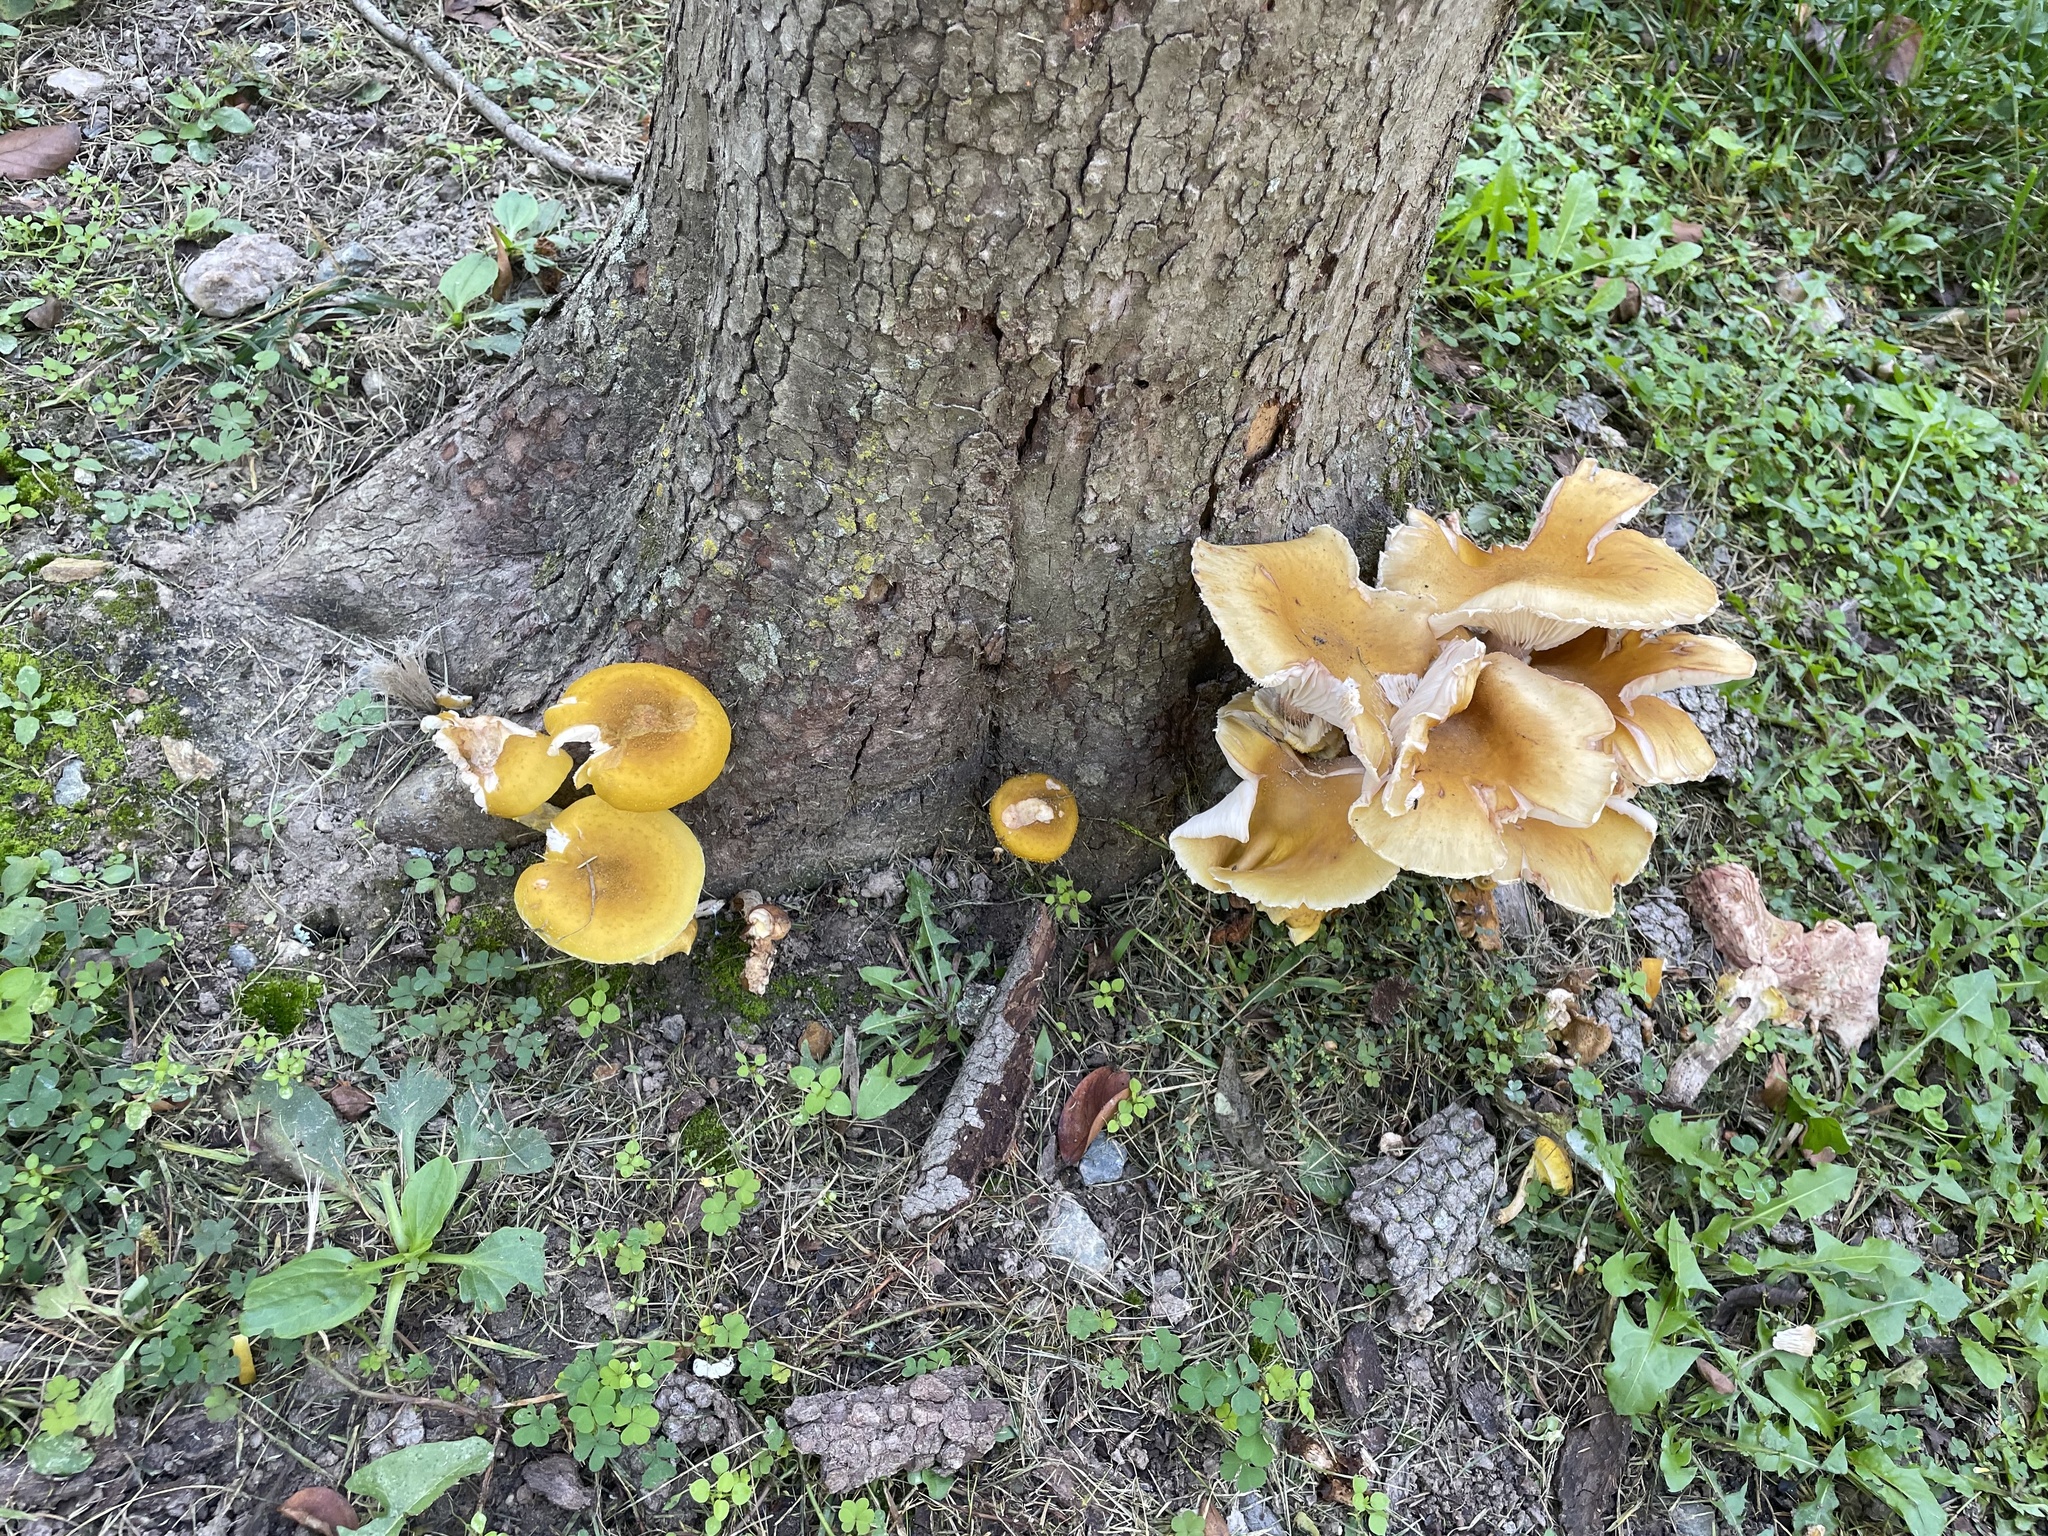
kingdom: Fungi
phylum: Basidiomycota
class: Agaricomycetes
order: Agaricales
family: Physalacriaceae
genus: Armillaria
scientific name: Armillaria mellea
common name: Honey fungus
